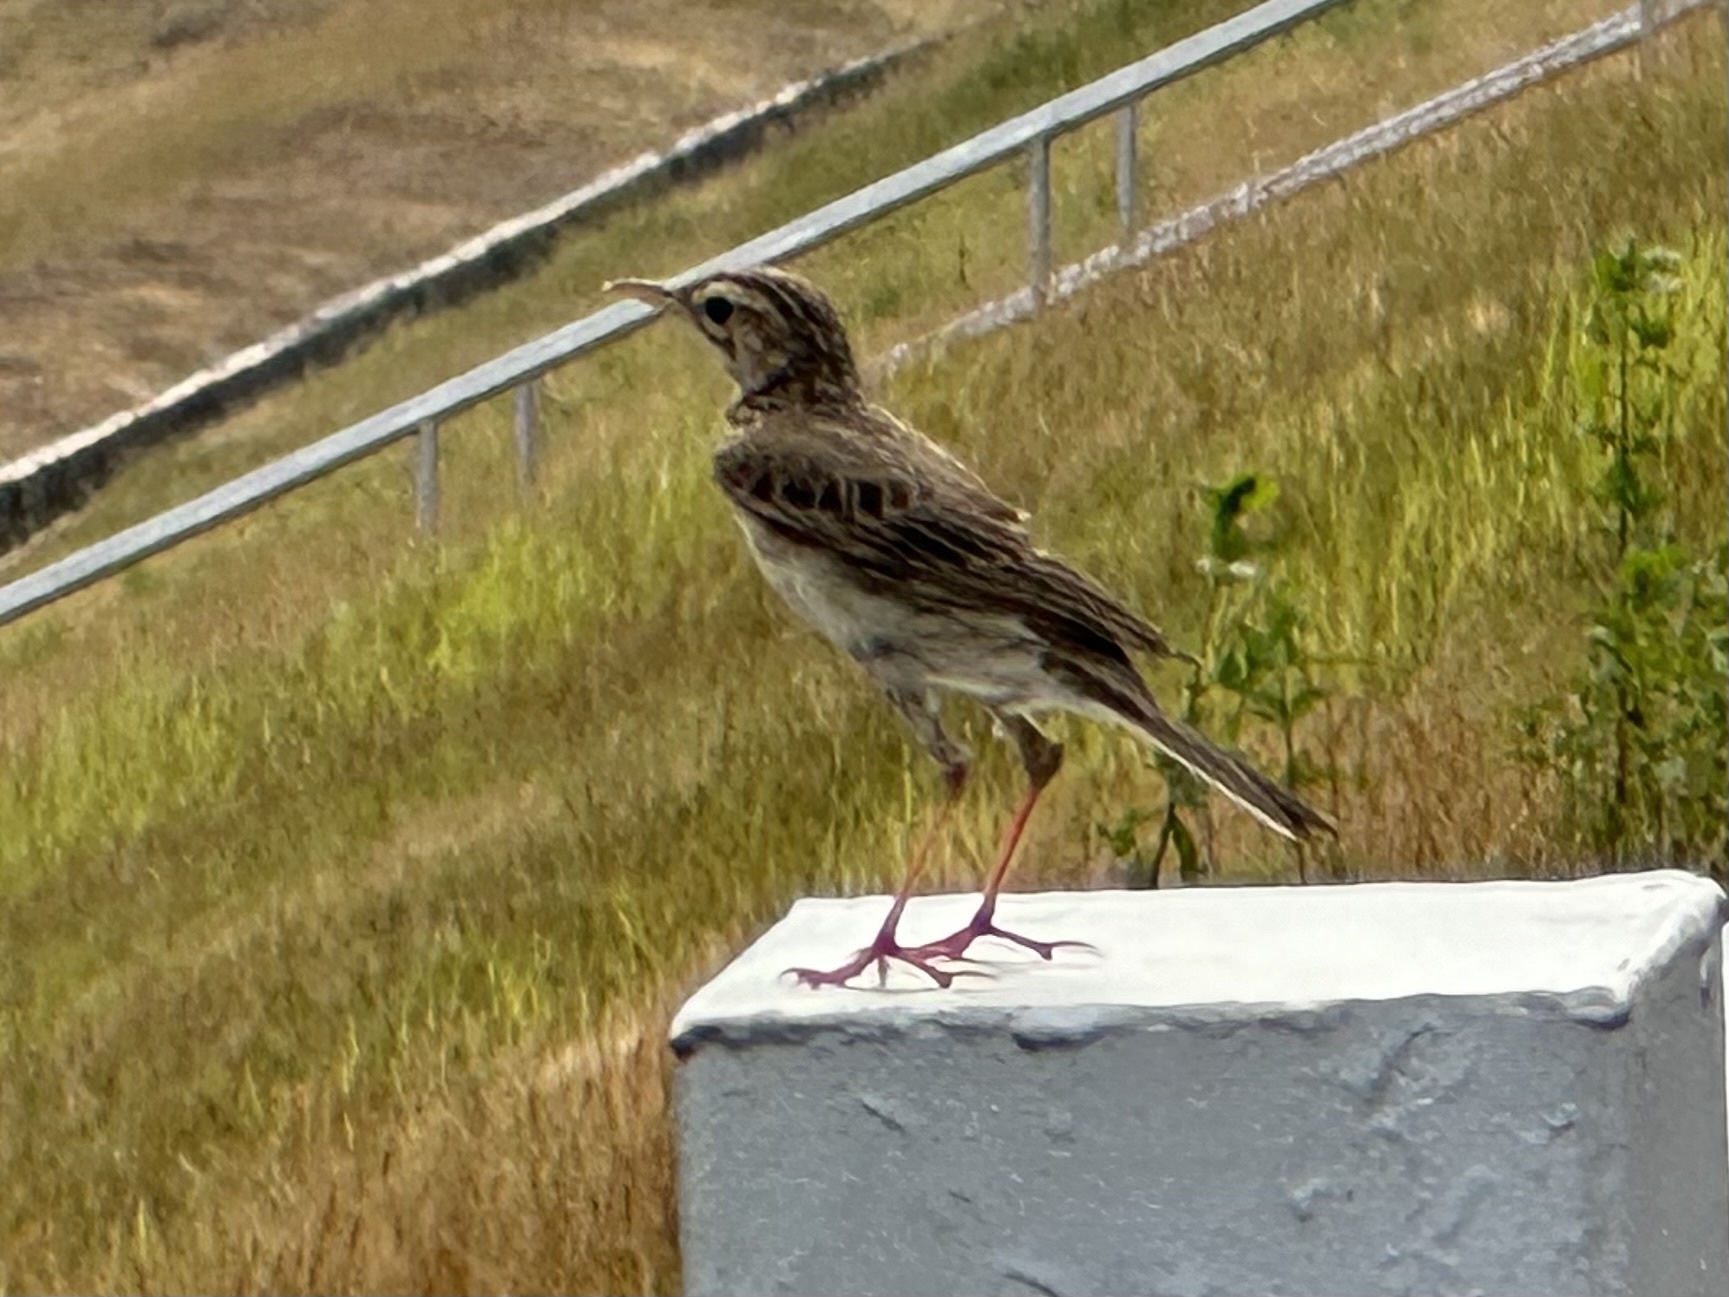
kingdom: Animalia
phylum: Chordata
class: Aves
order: Passeriformes
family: Motacillidae
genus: Anthus
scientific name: Anthus rufulus
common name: Paddyfield pipit
